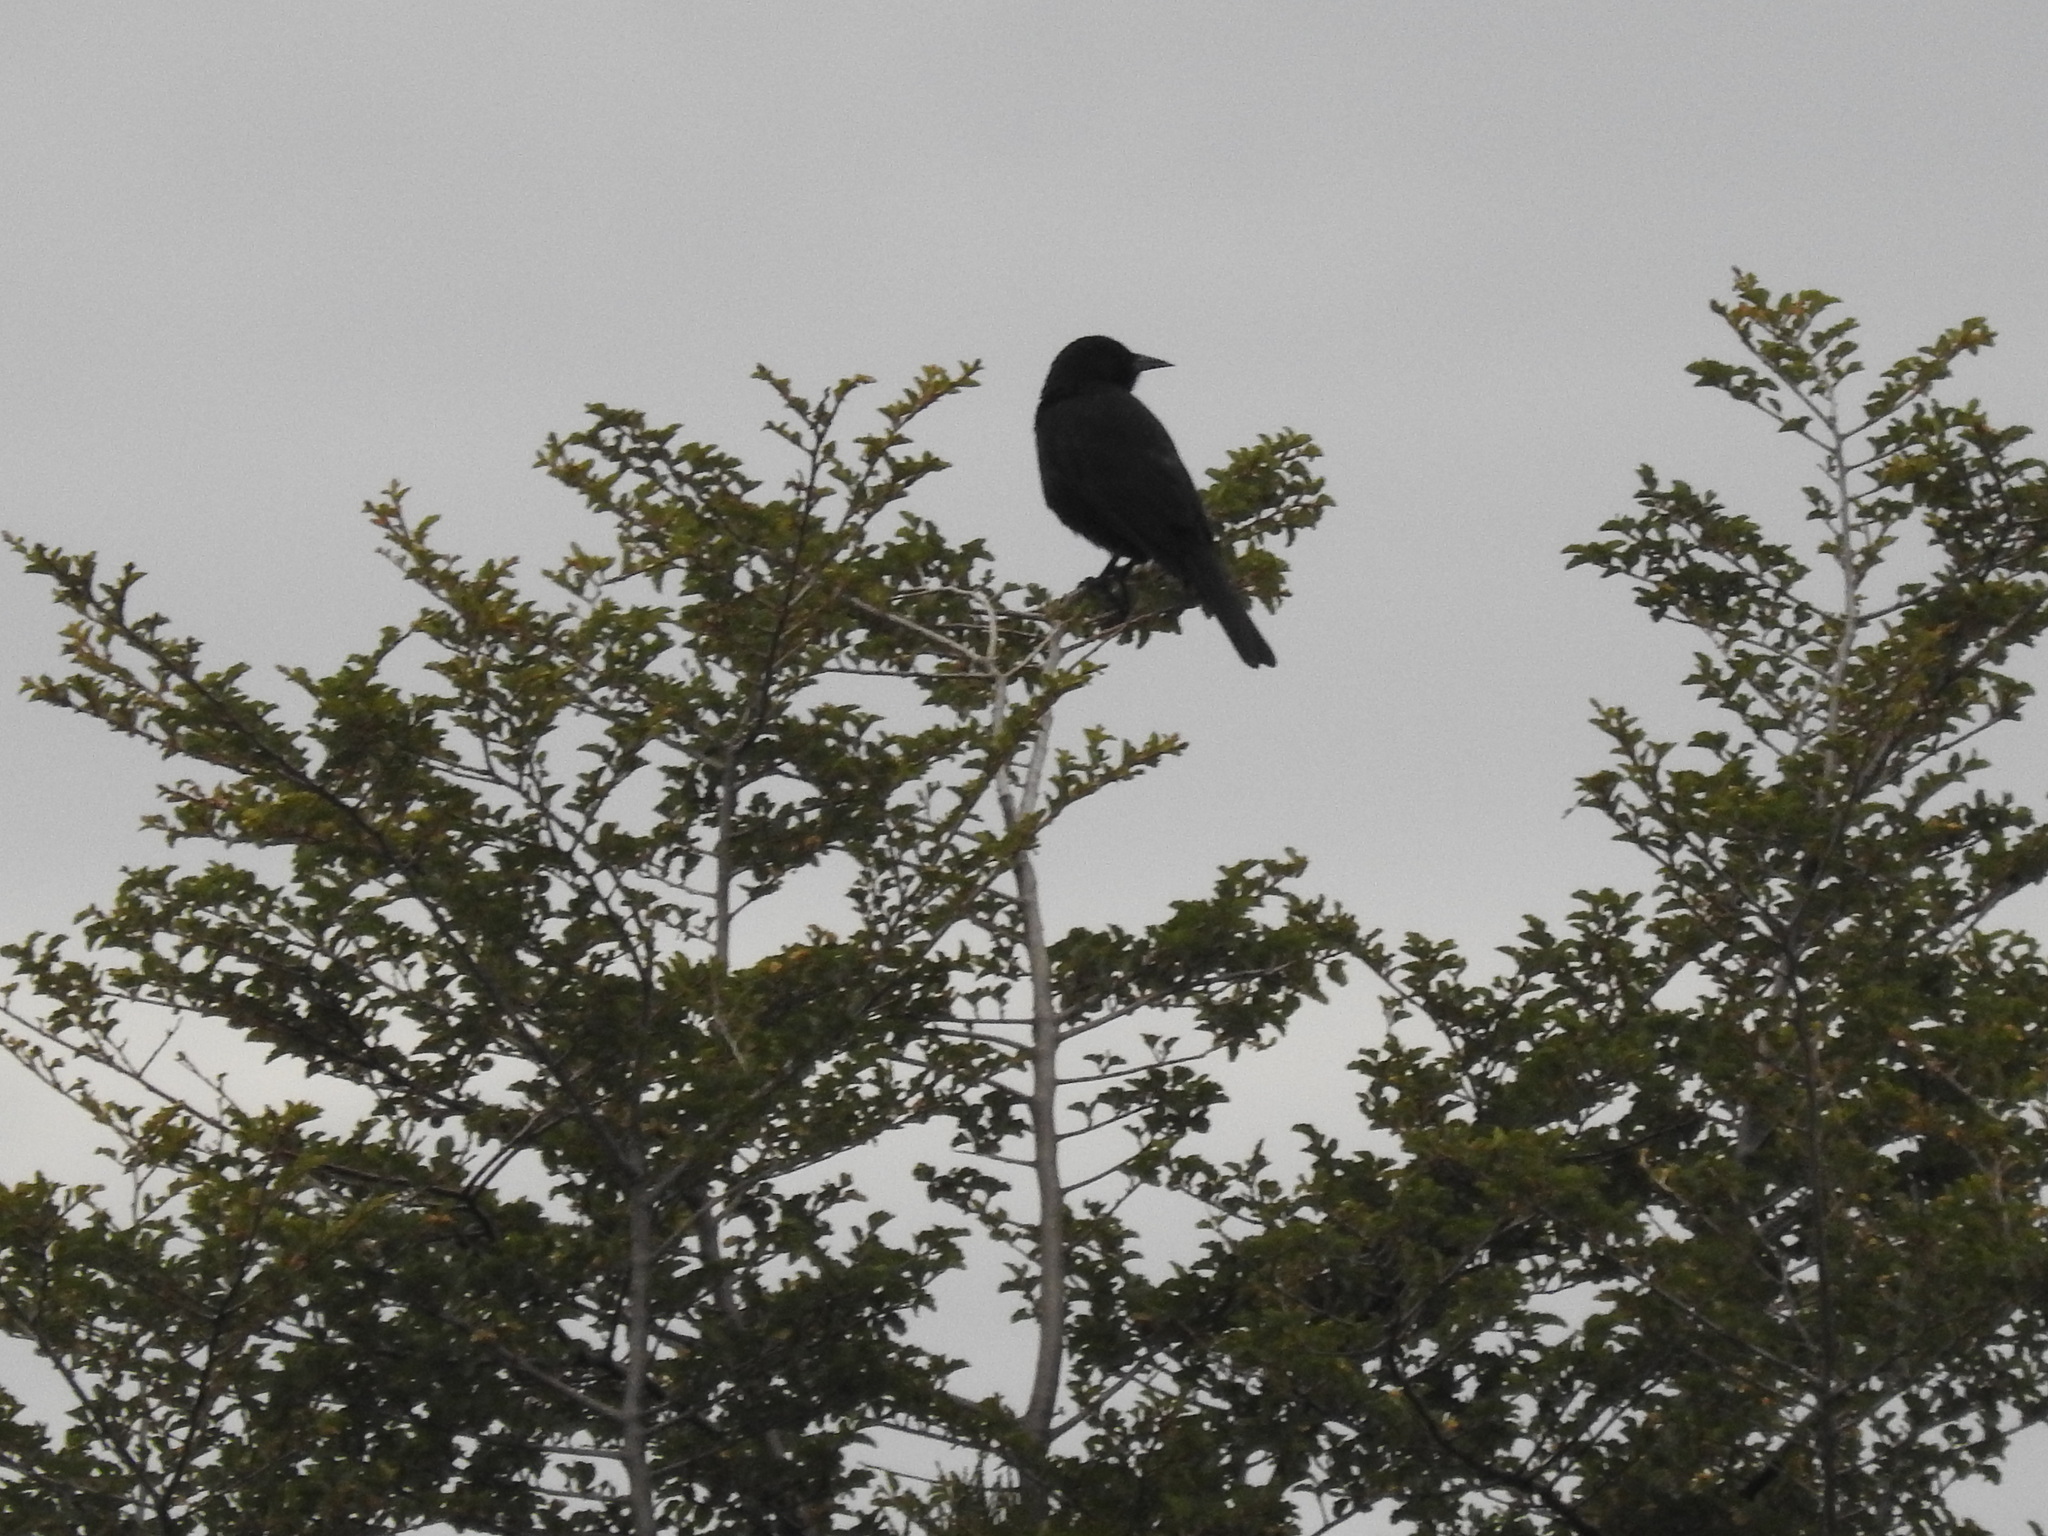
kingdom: Animalia
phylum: Chordata
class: Aves
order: Passeriformes
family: Icteridae
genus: Curaeus
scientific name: Curaeus curaeus
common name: Austral blackbird
